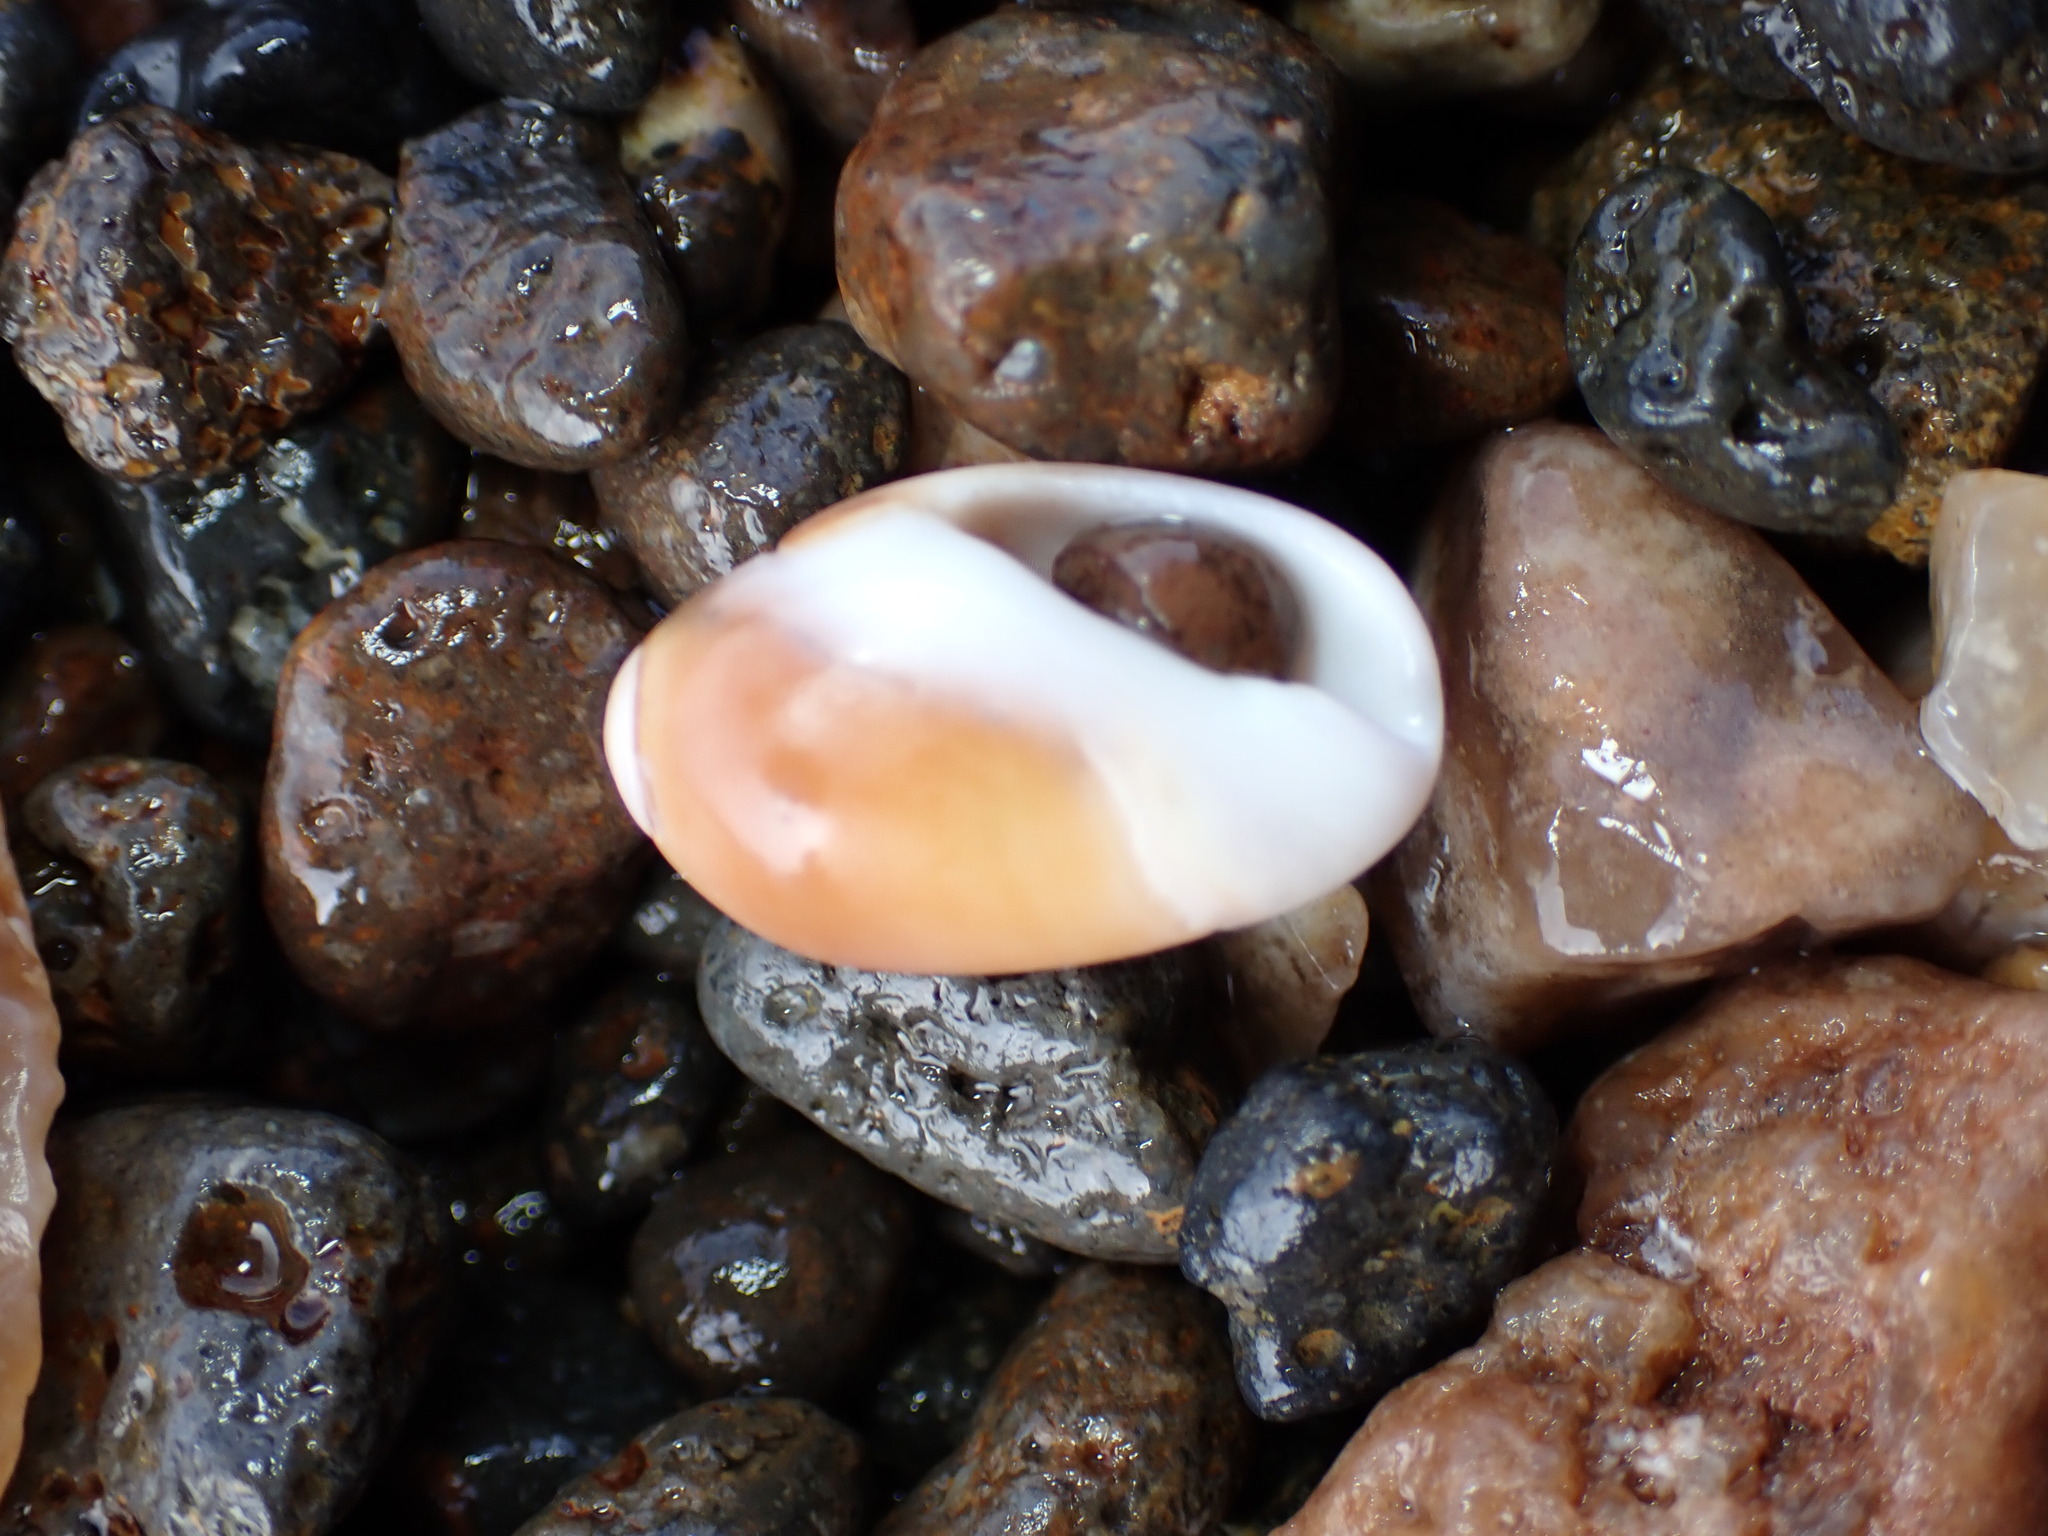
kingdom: Animalia
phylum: Mollusca
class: Gastropoda
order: Neogastropoda
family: Olividae
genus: Callianax
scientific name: Callianax biplicata
